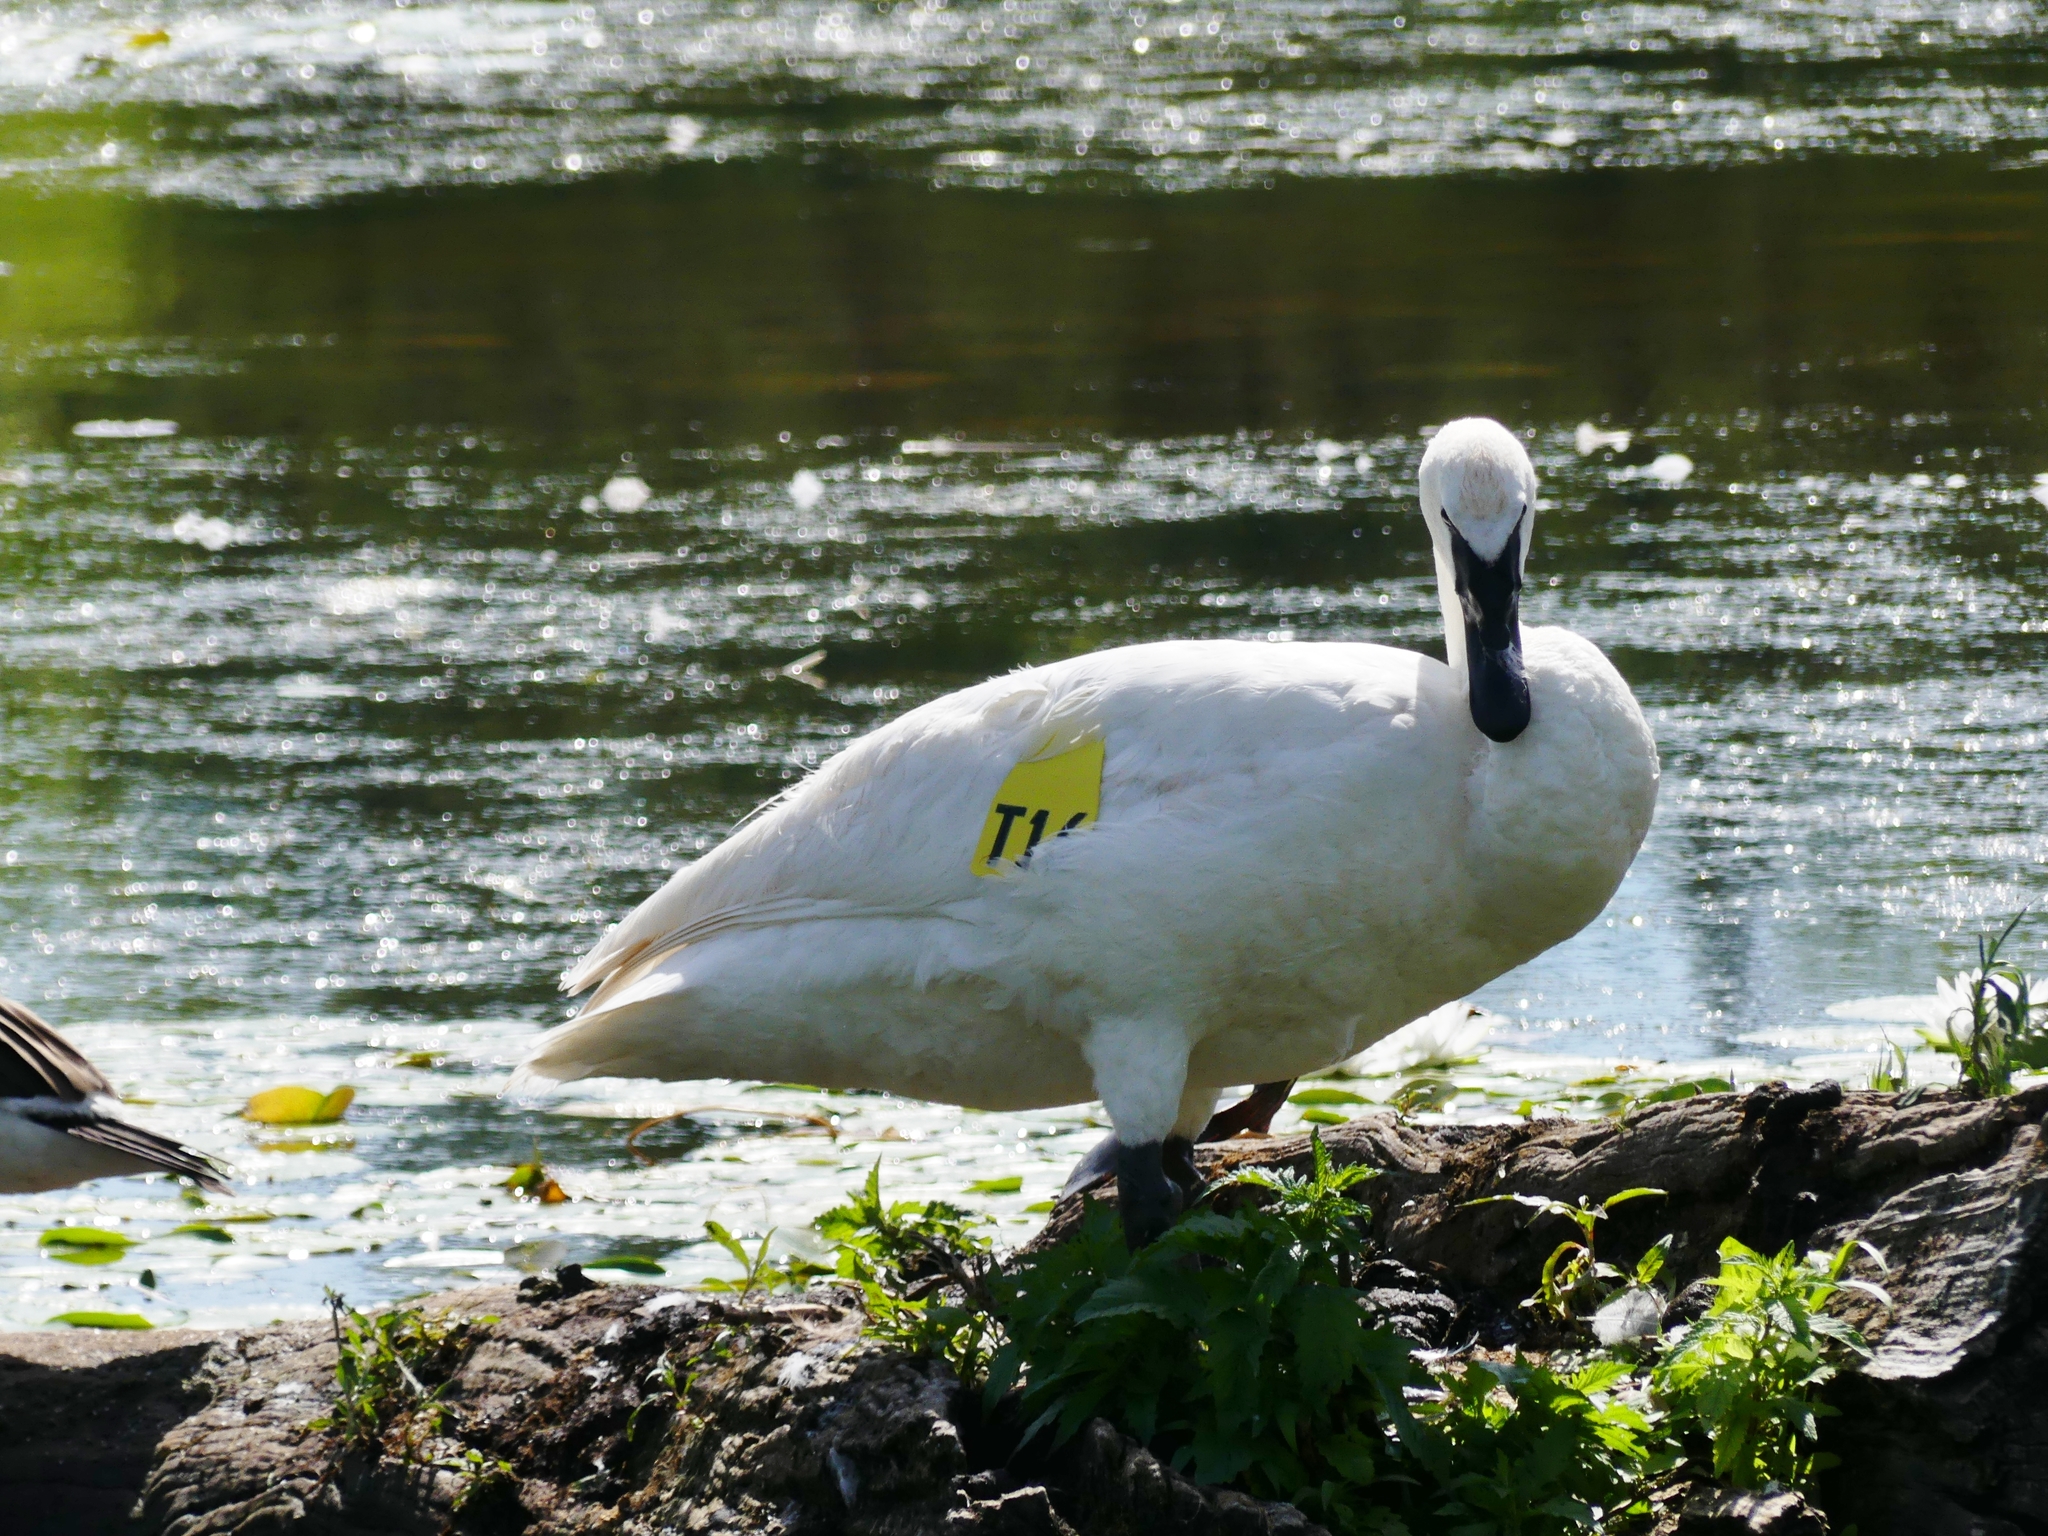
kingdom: Animalia
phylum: Chordata
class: Aves
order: Anseriformes
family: Anatidae
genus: Cygnus
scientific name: Cygnus buccinator
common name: Trumpeter swan
